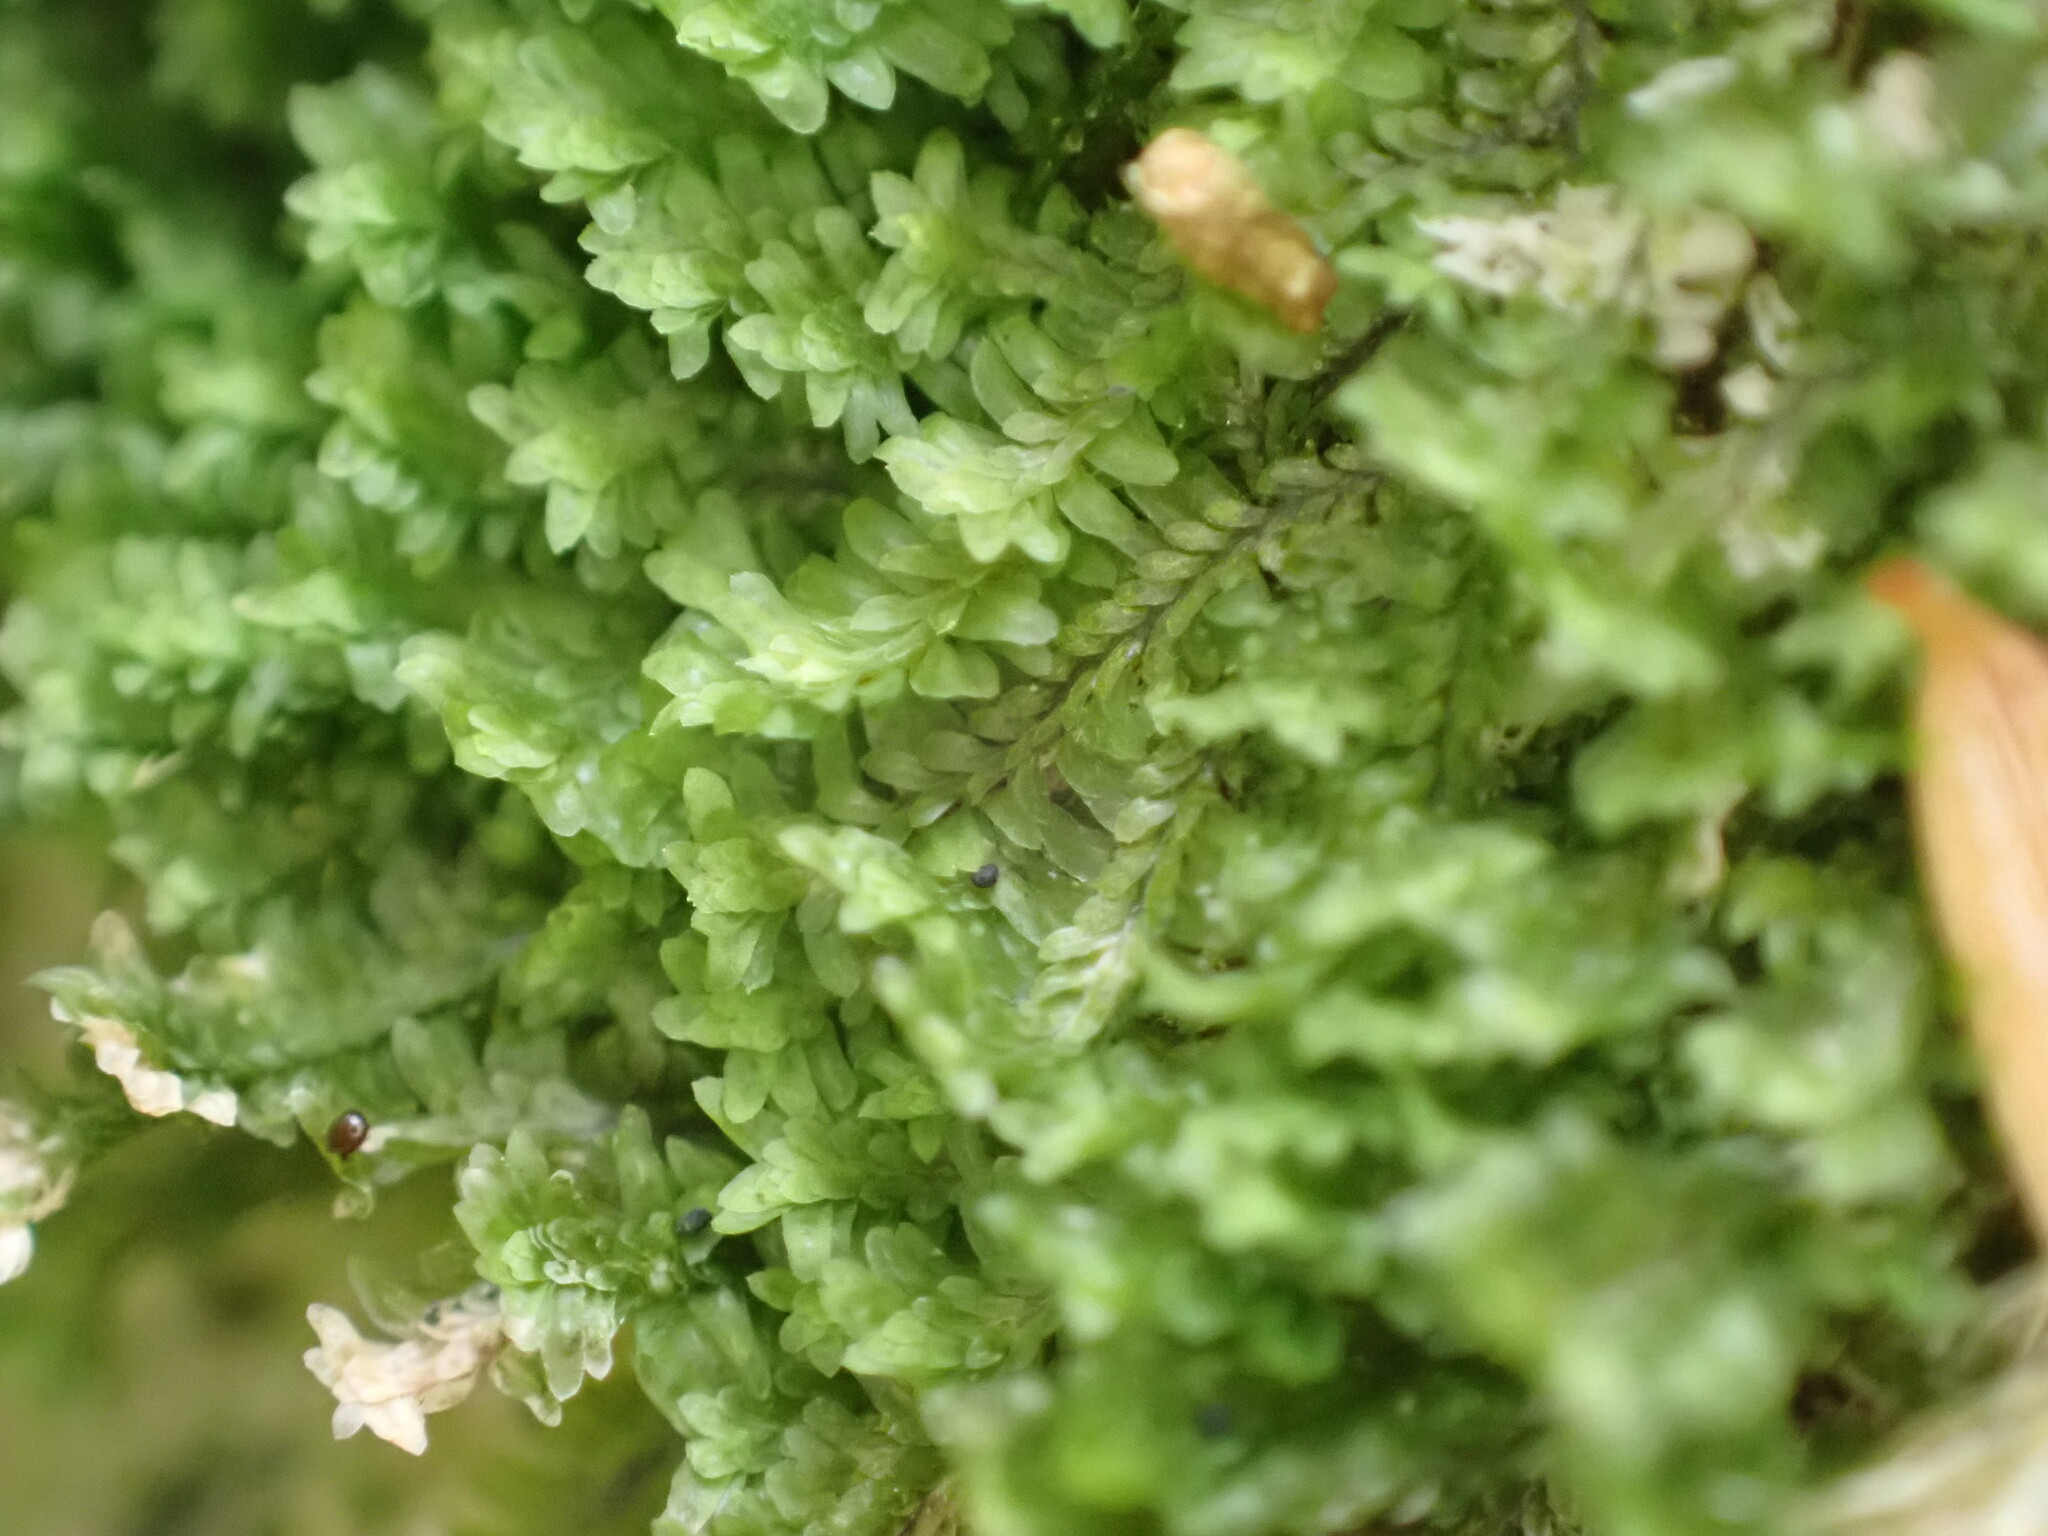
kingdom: Plantae
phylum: Marchantiophyta
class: Jungermanniopsida
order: Jungermanniales
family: Scapaniaceae
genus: Diplophyllum
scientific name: Diplophyllum albicans
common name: White earwort
